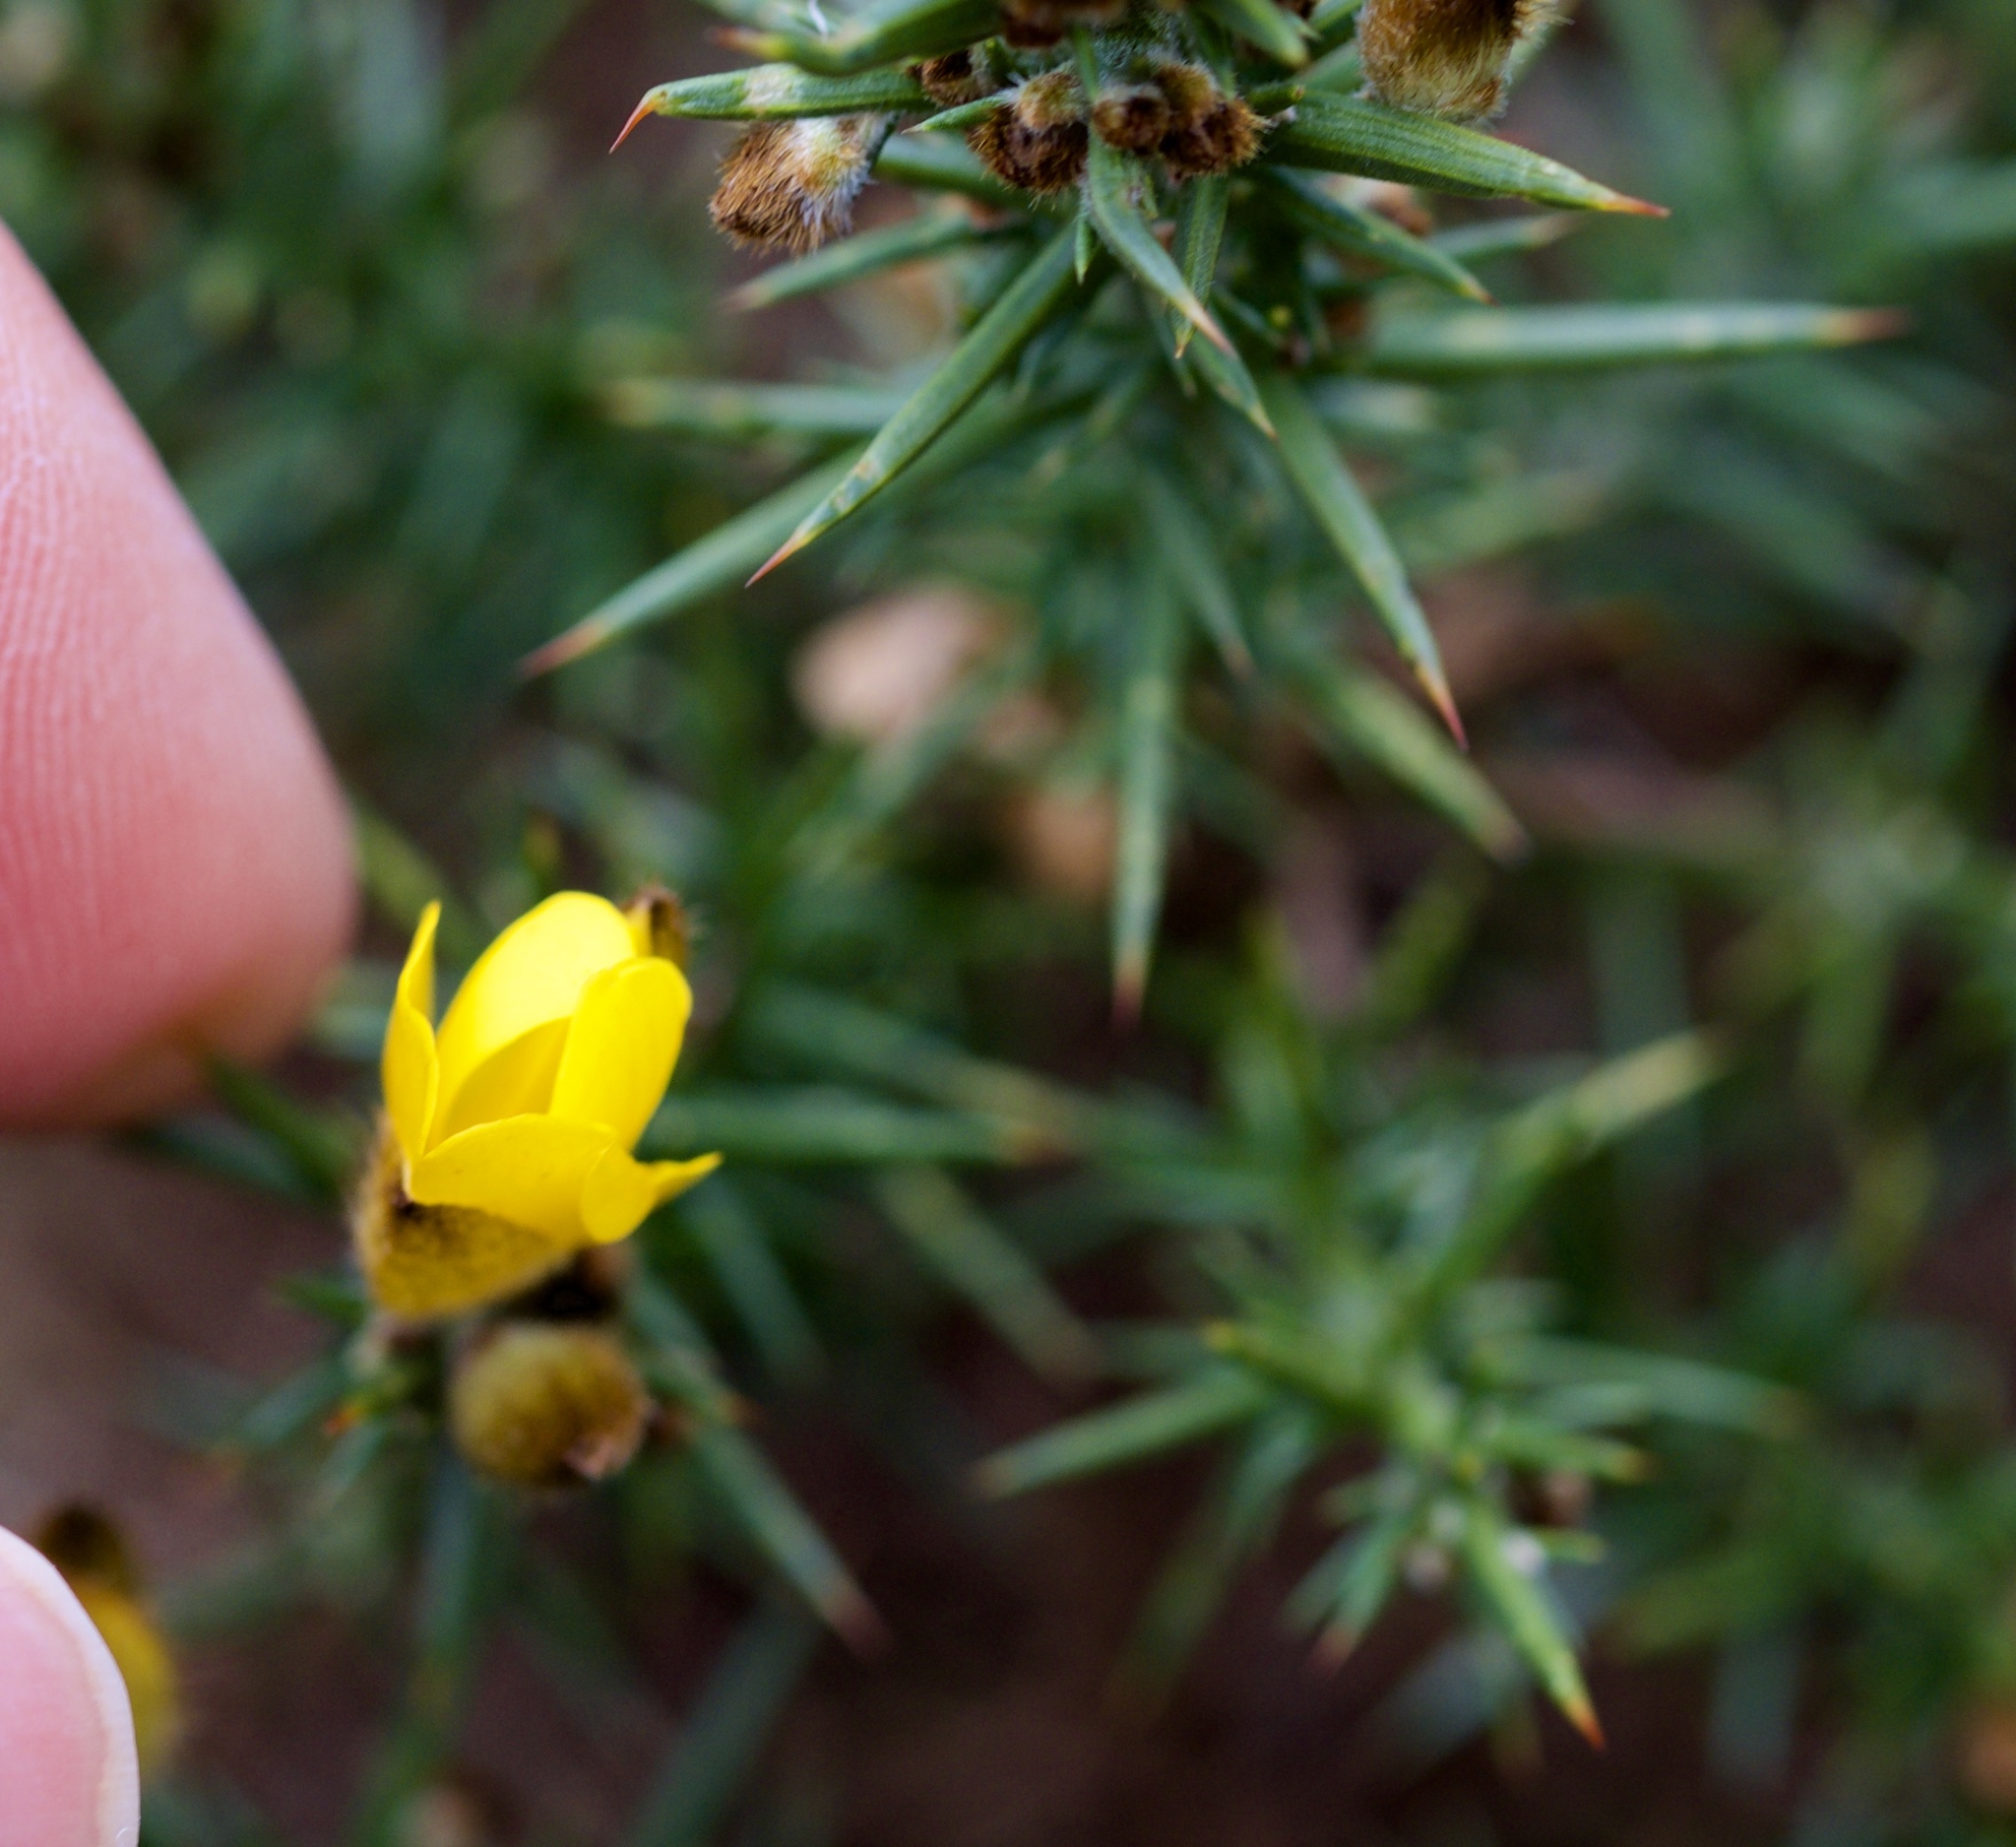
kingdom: Plantae
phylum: Tracheophyta
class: Magnoliopsida
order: Fabales
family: Fabaceae
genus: Ulex
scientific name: Ulex europaeus
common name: Common gorse
